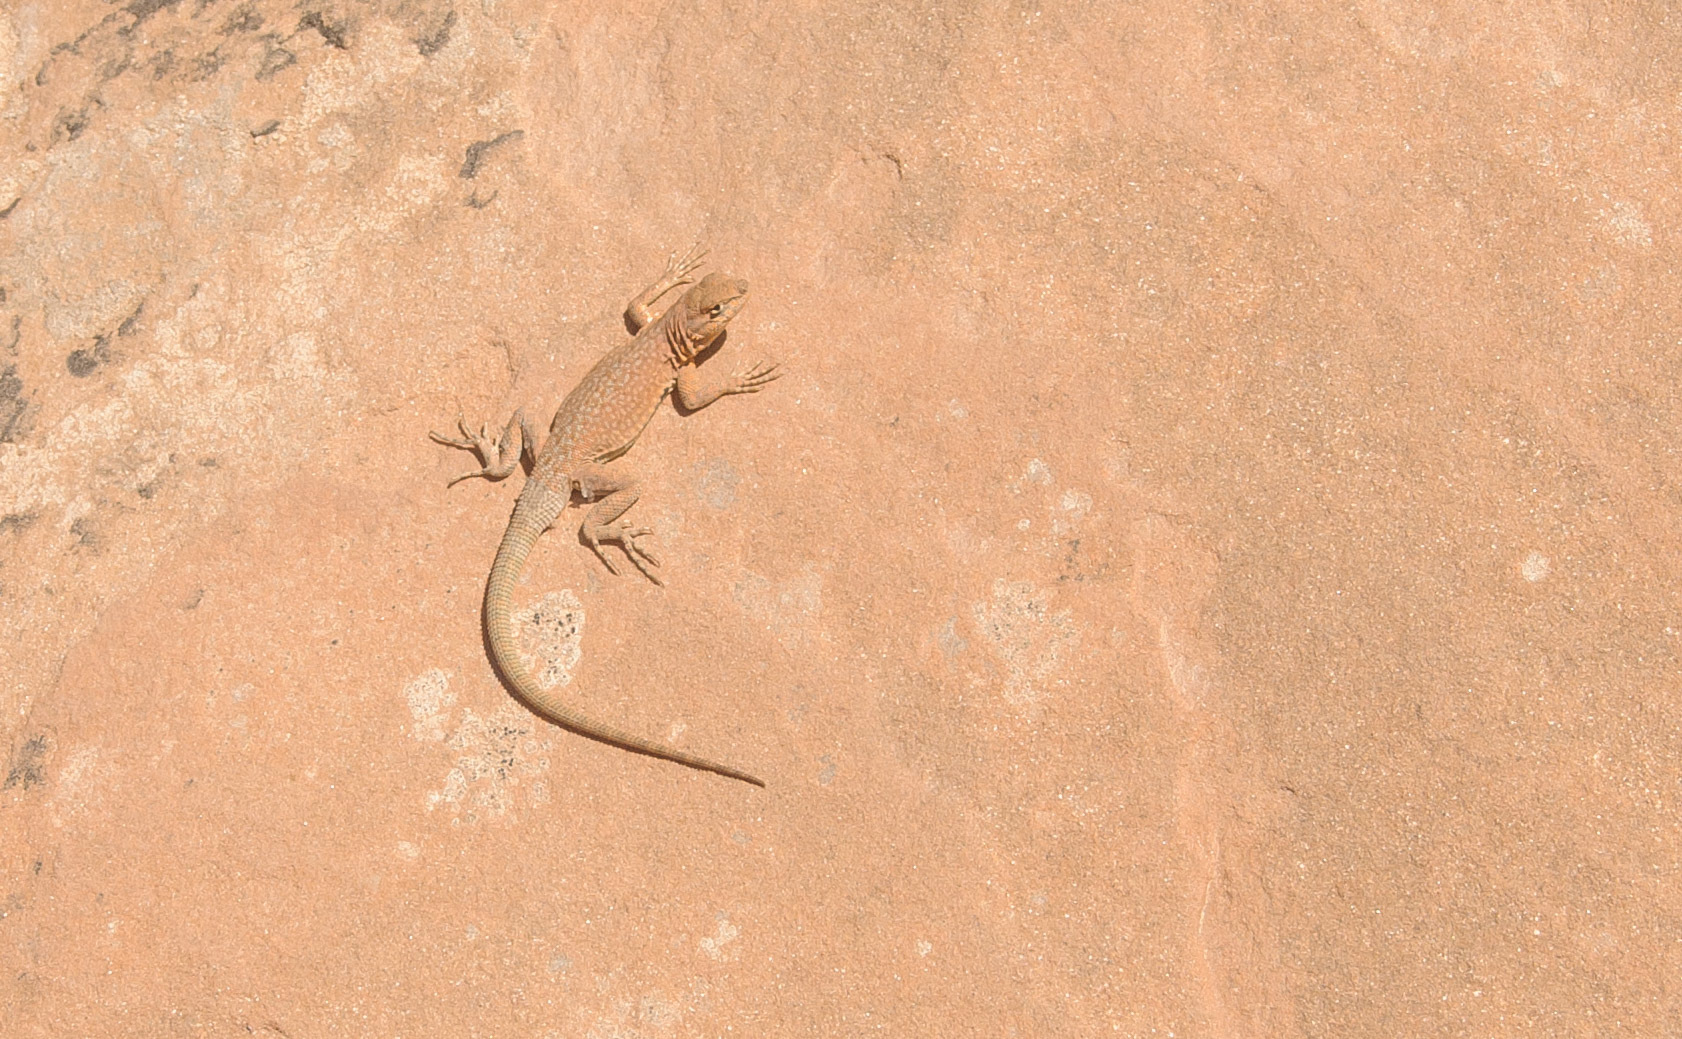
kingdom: Animalia
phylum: Chordata
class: Squamata
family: Phrynosomatidae
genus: Uta
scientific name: Uta stansburiana
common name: Side-blotched lizard
